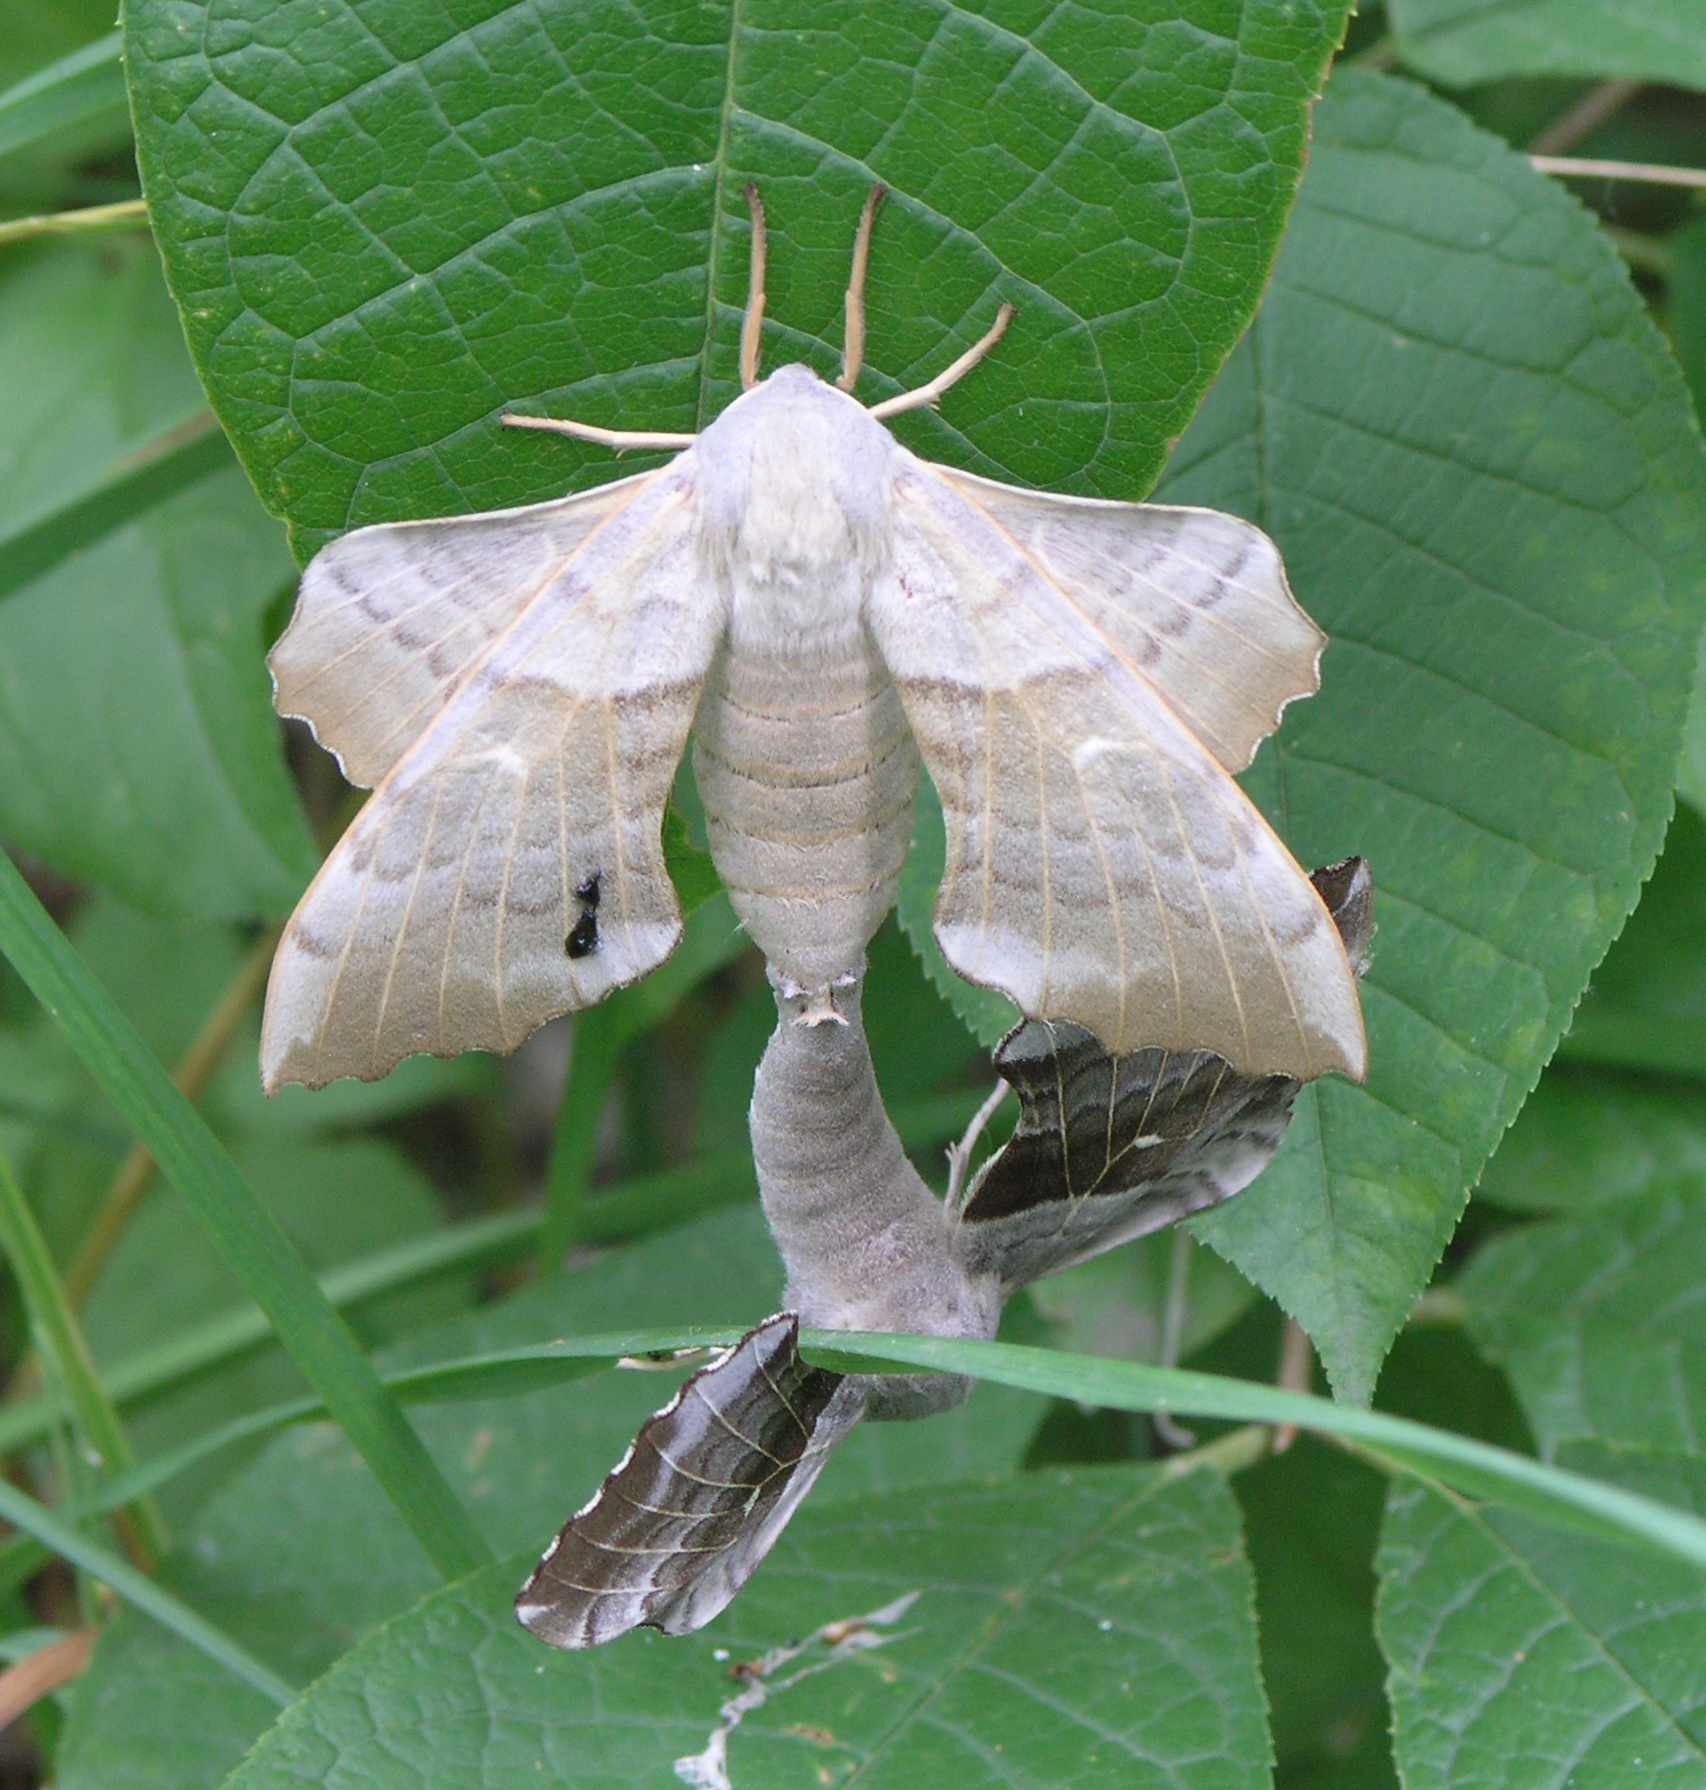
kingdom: Animalia
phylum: Arthropoda
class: Insecta
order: Lepidoptera
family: Sphingidae
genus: Laothoe
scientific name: Laothoe populi
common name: Poplar hawk-moth
